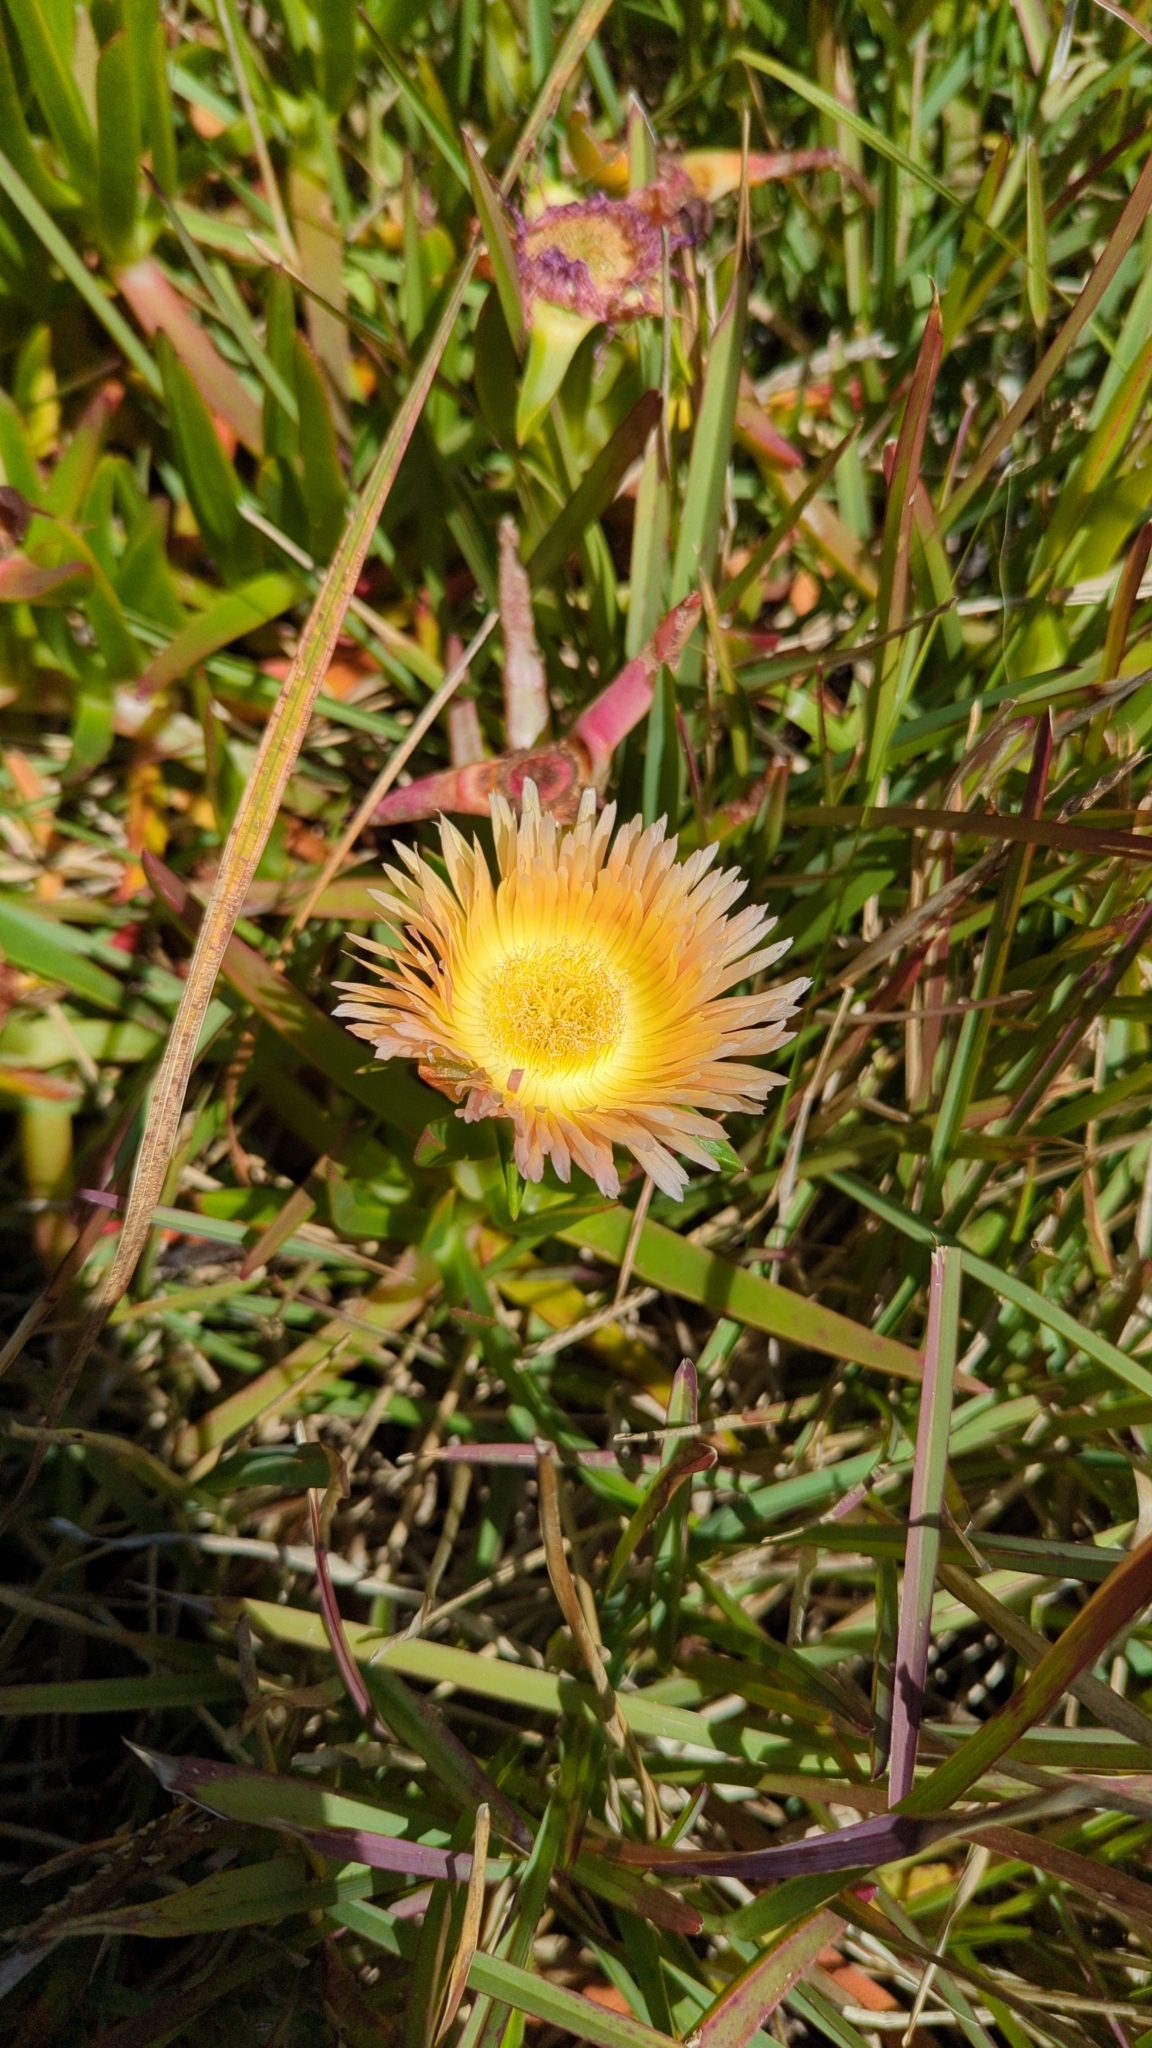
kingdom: Plantae
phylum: Tracheophyta
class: Magnoliopsida
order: Caryophyllales
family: Aizoaceae
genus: Carpobrotus
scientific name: Carpobrotus edulis
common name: Hottentot-fig
